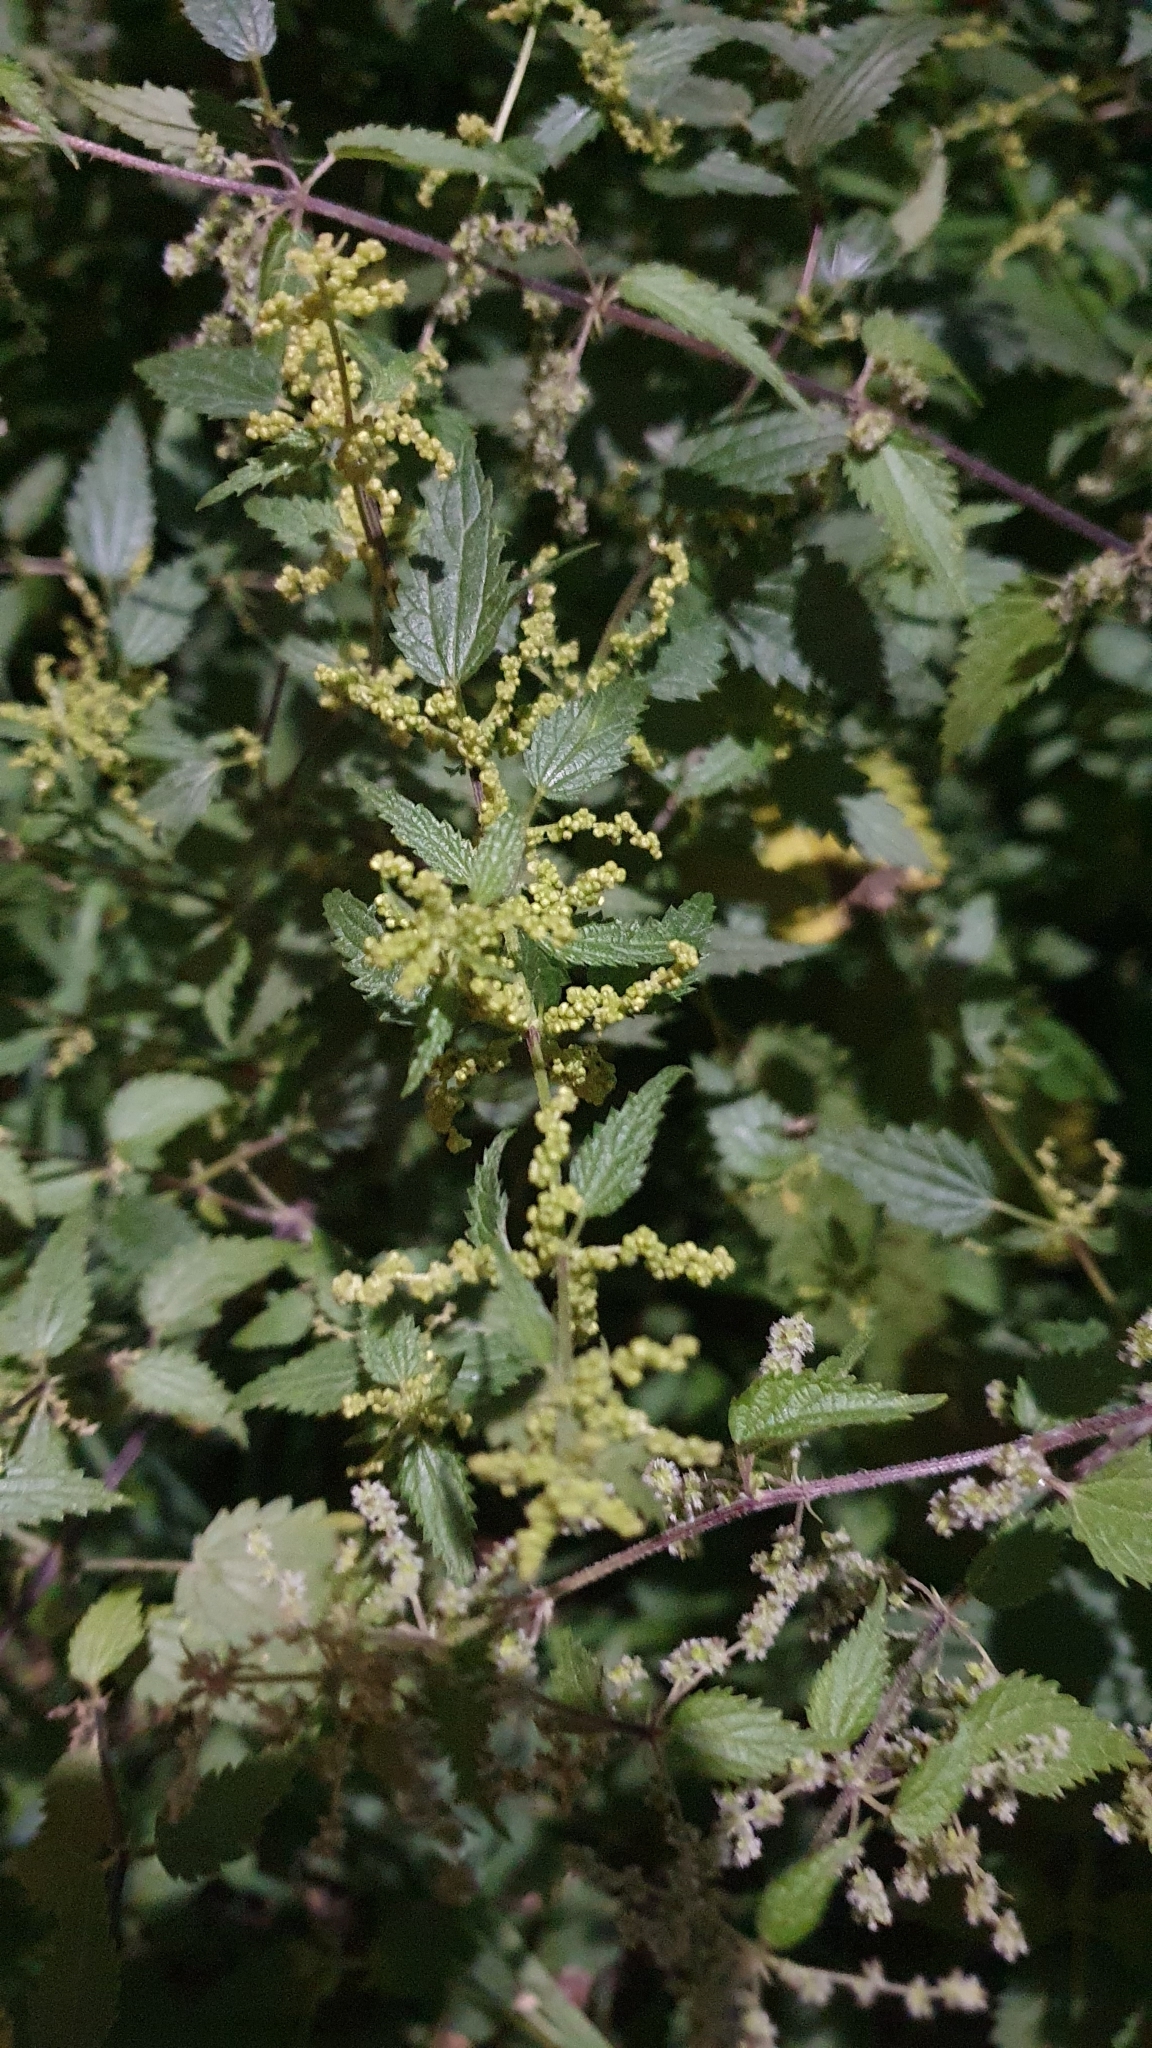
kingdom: Plantae
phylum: Tracheophyta
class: Magnoliopsida
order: Rosales
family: Urticaceae
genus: Urtica
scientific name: Urtica dioica
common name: Common nettle
